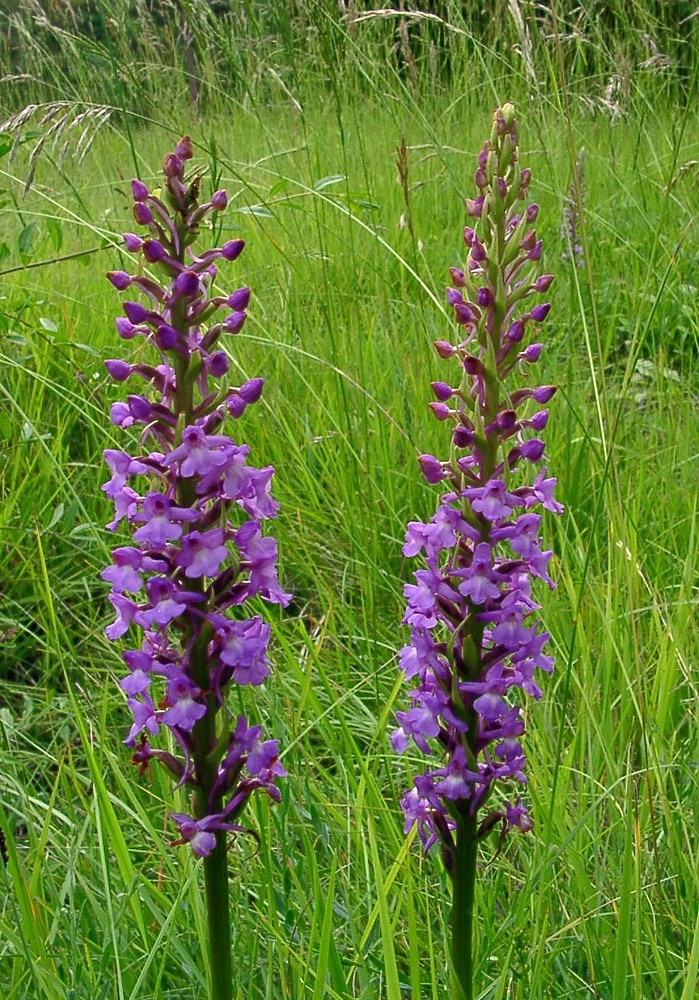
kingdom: Plantae
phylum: Tracheophyta
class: Liliopsida
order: Asparagales
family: Orchidaceae
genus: Gymnadenia
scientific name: Gymnadenia conopsea
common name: Fragrant orchid
